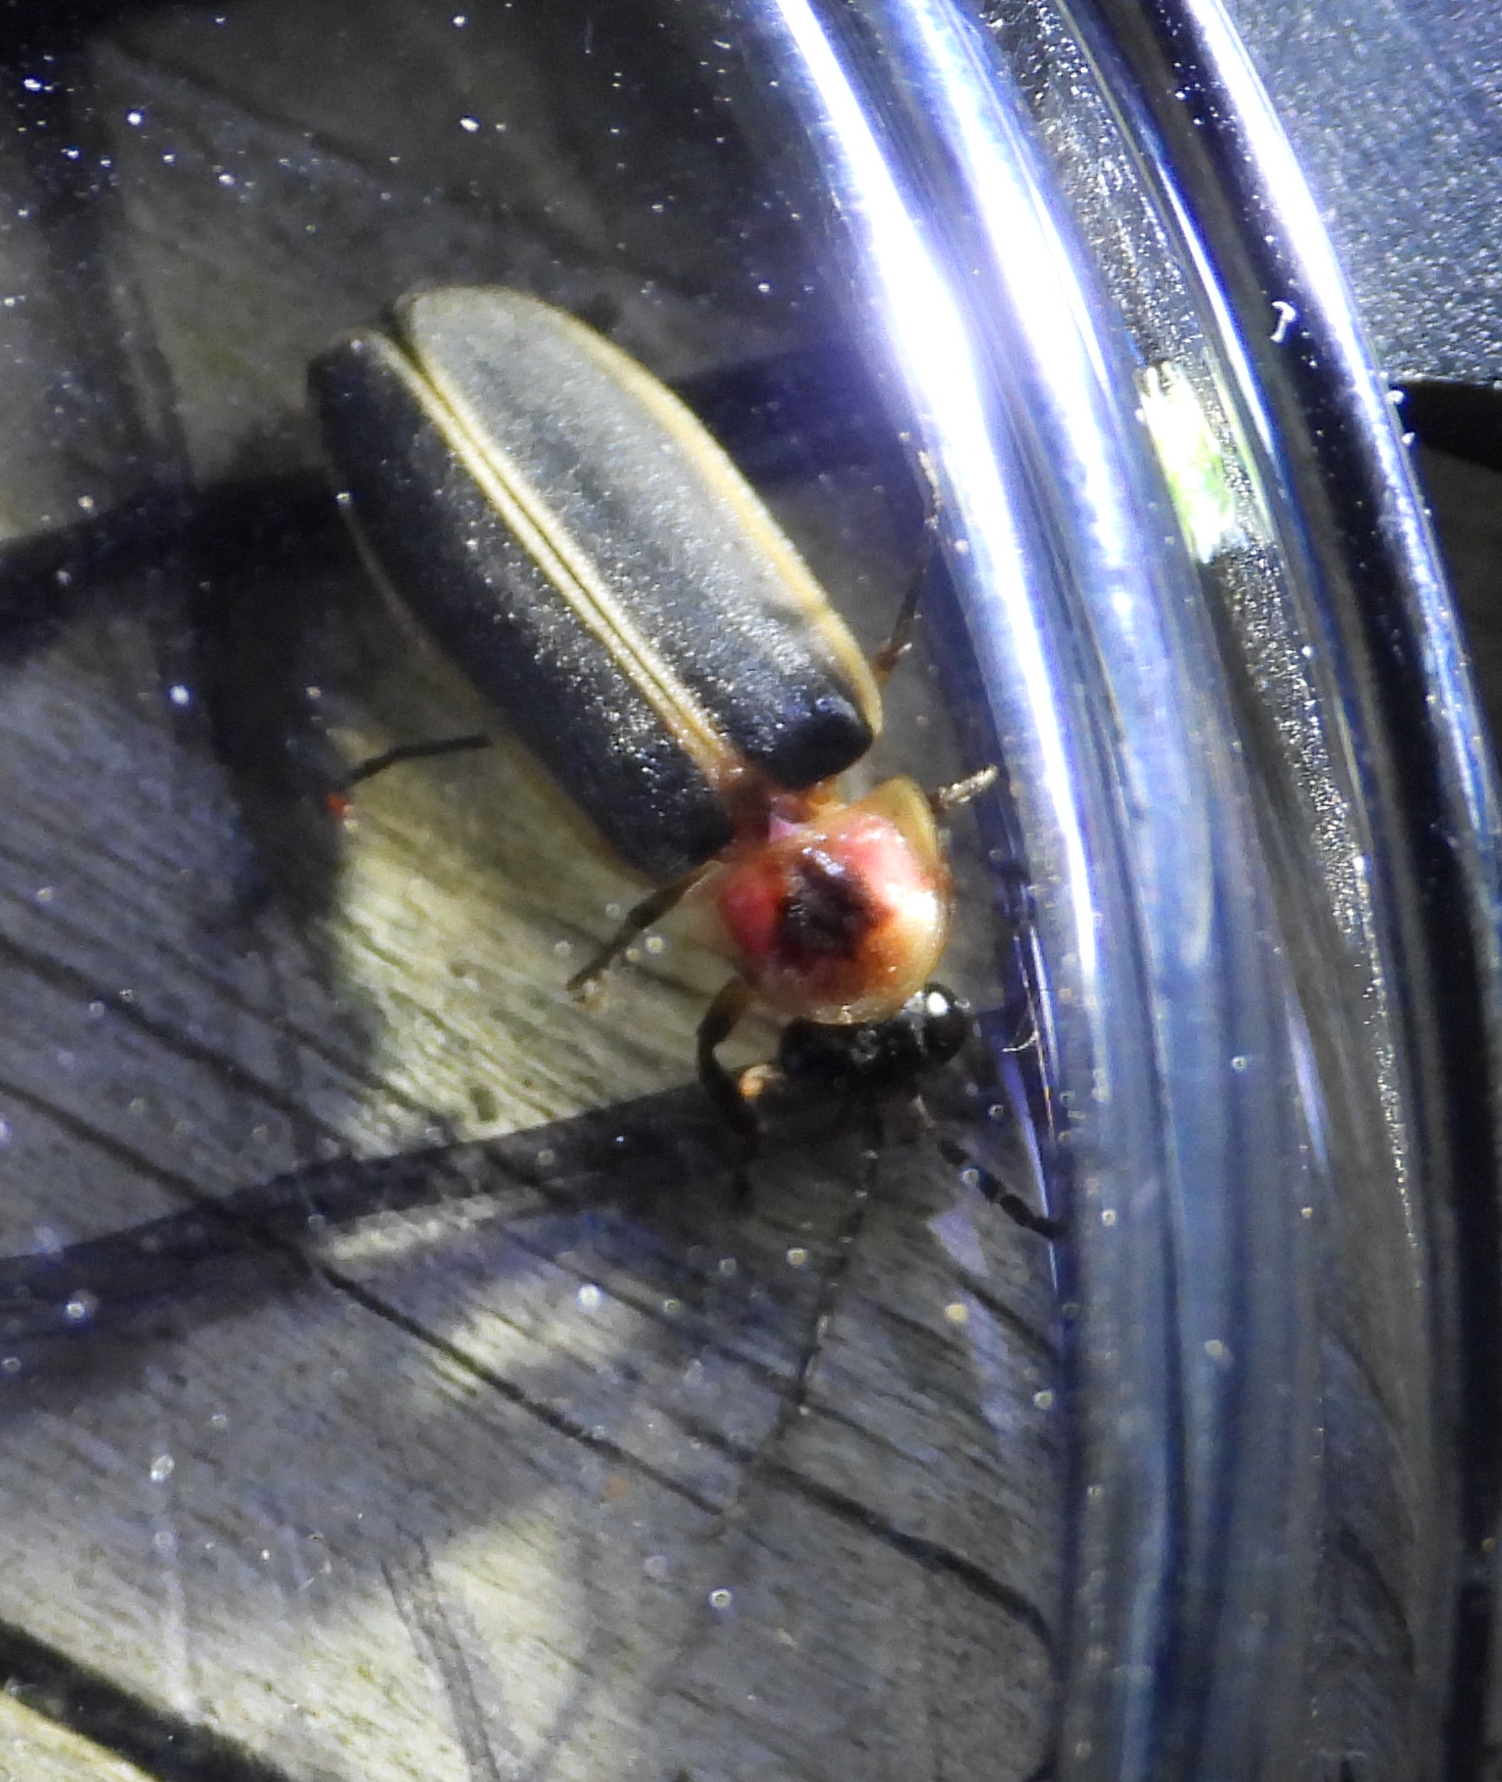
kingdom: Animalia
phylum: Arthropoda
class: Insecta
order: Coleoptera
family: Lampyridae
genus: Photinus
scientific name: Photinus pyralis
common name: Big dipper firefly
